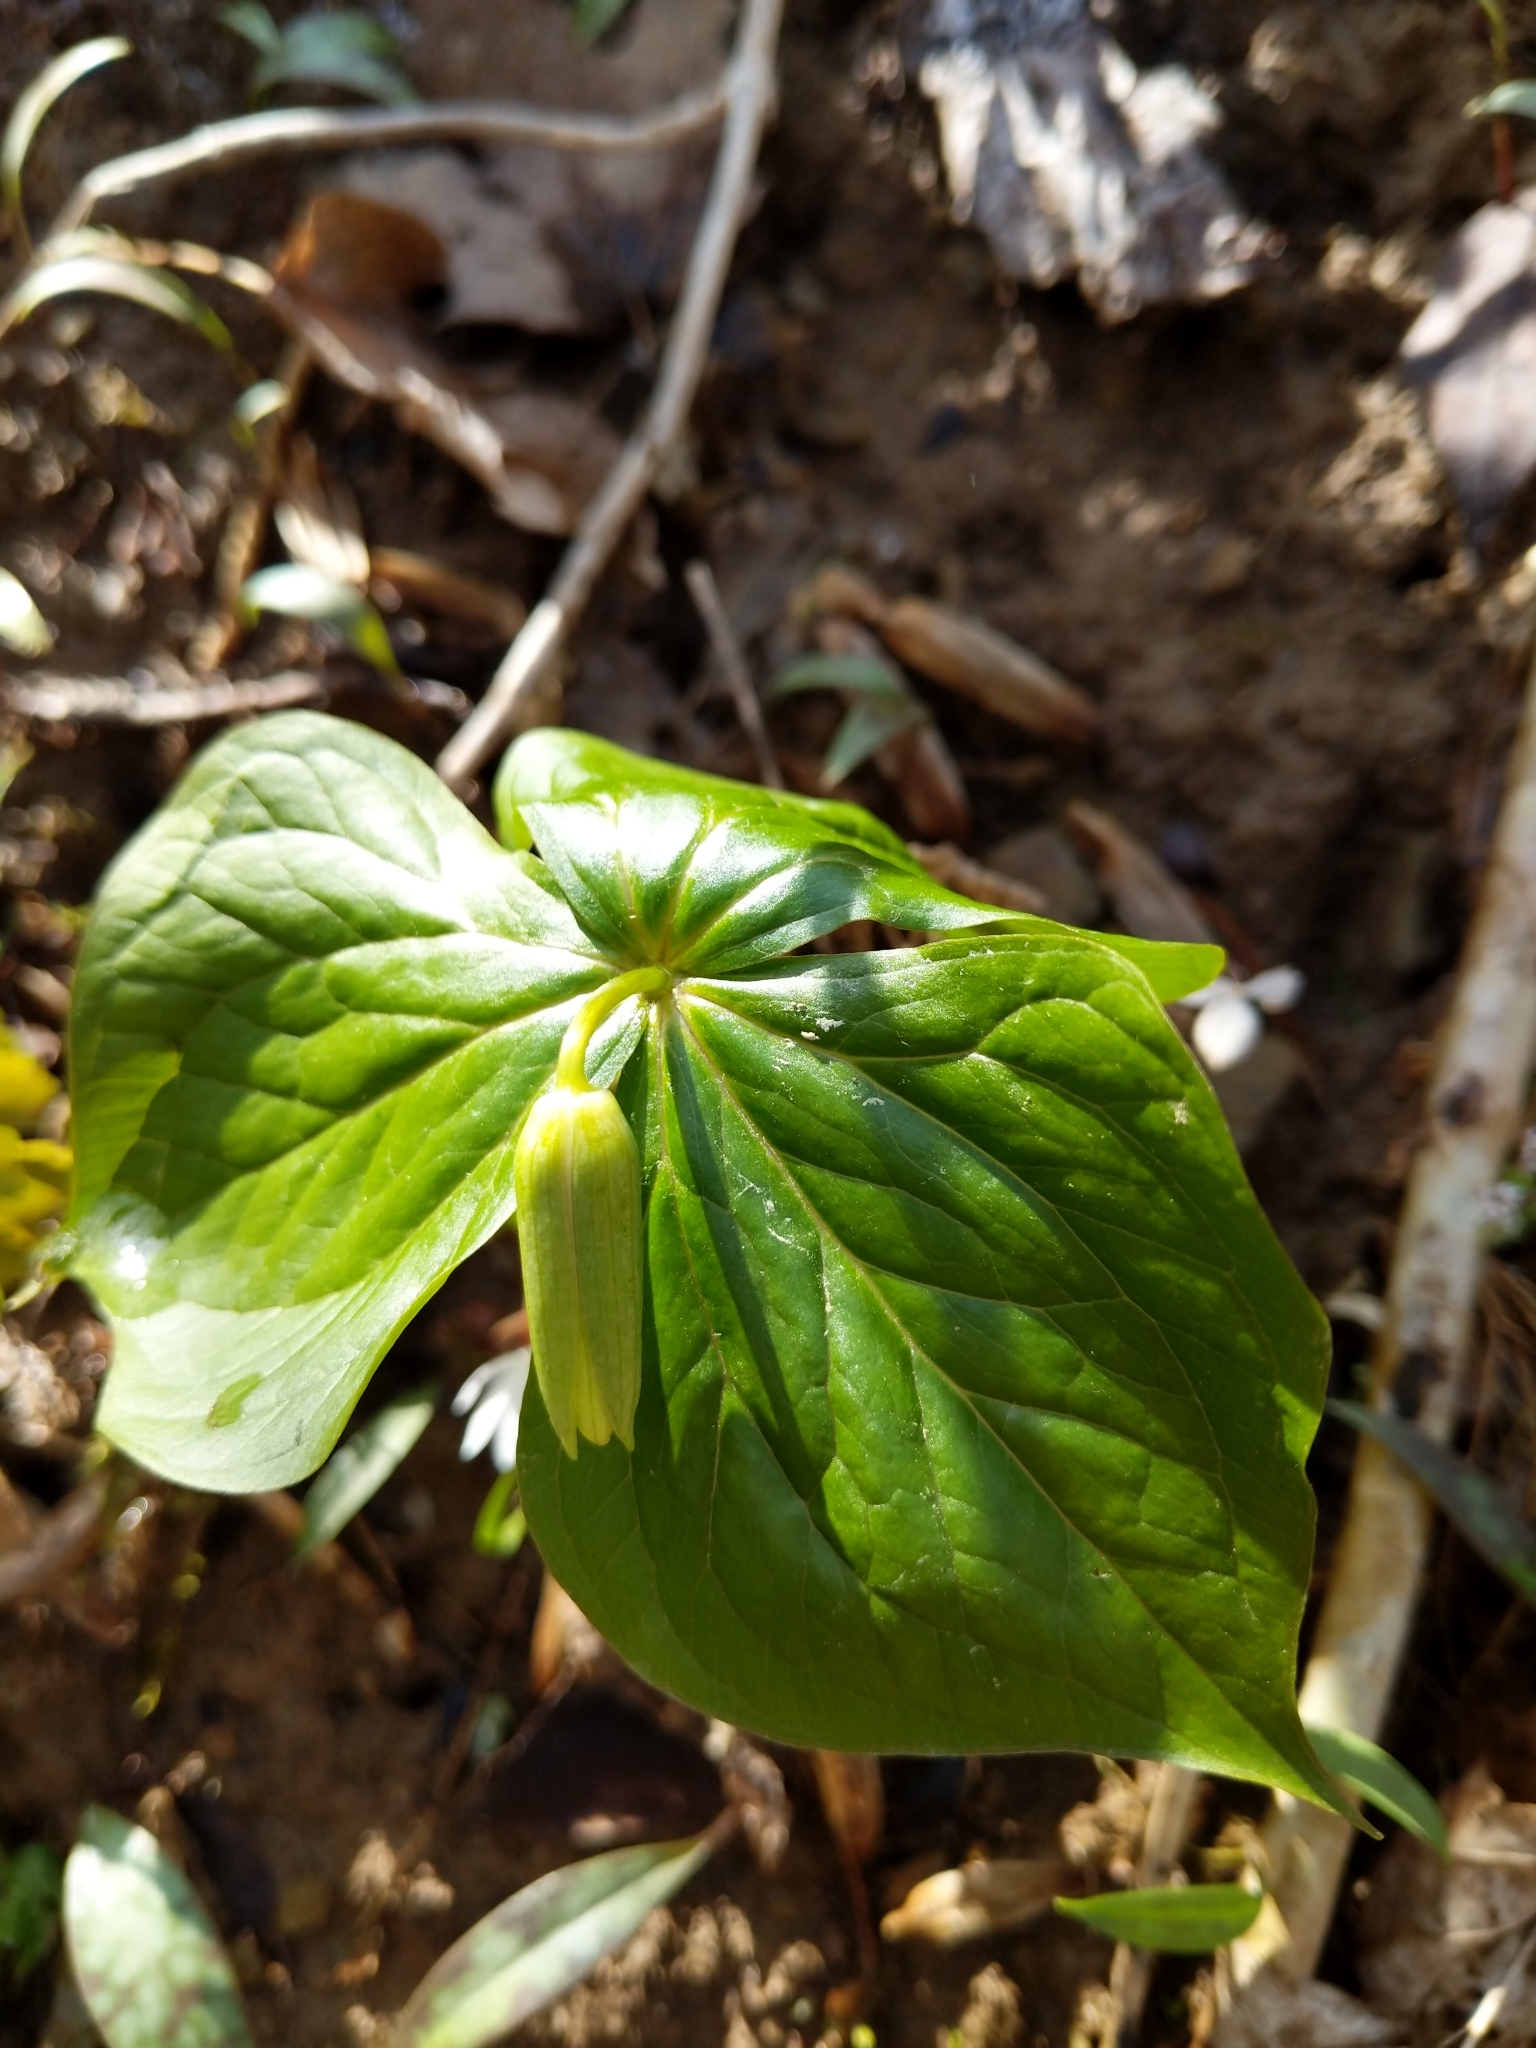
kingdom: Plantae
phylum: Tracheophyta
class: Liliopsida
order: Liliales
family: Melanthiaceae
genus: Trillium
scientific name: Trillium erectum
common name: Purple trillium
